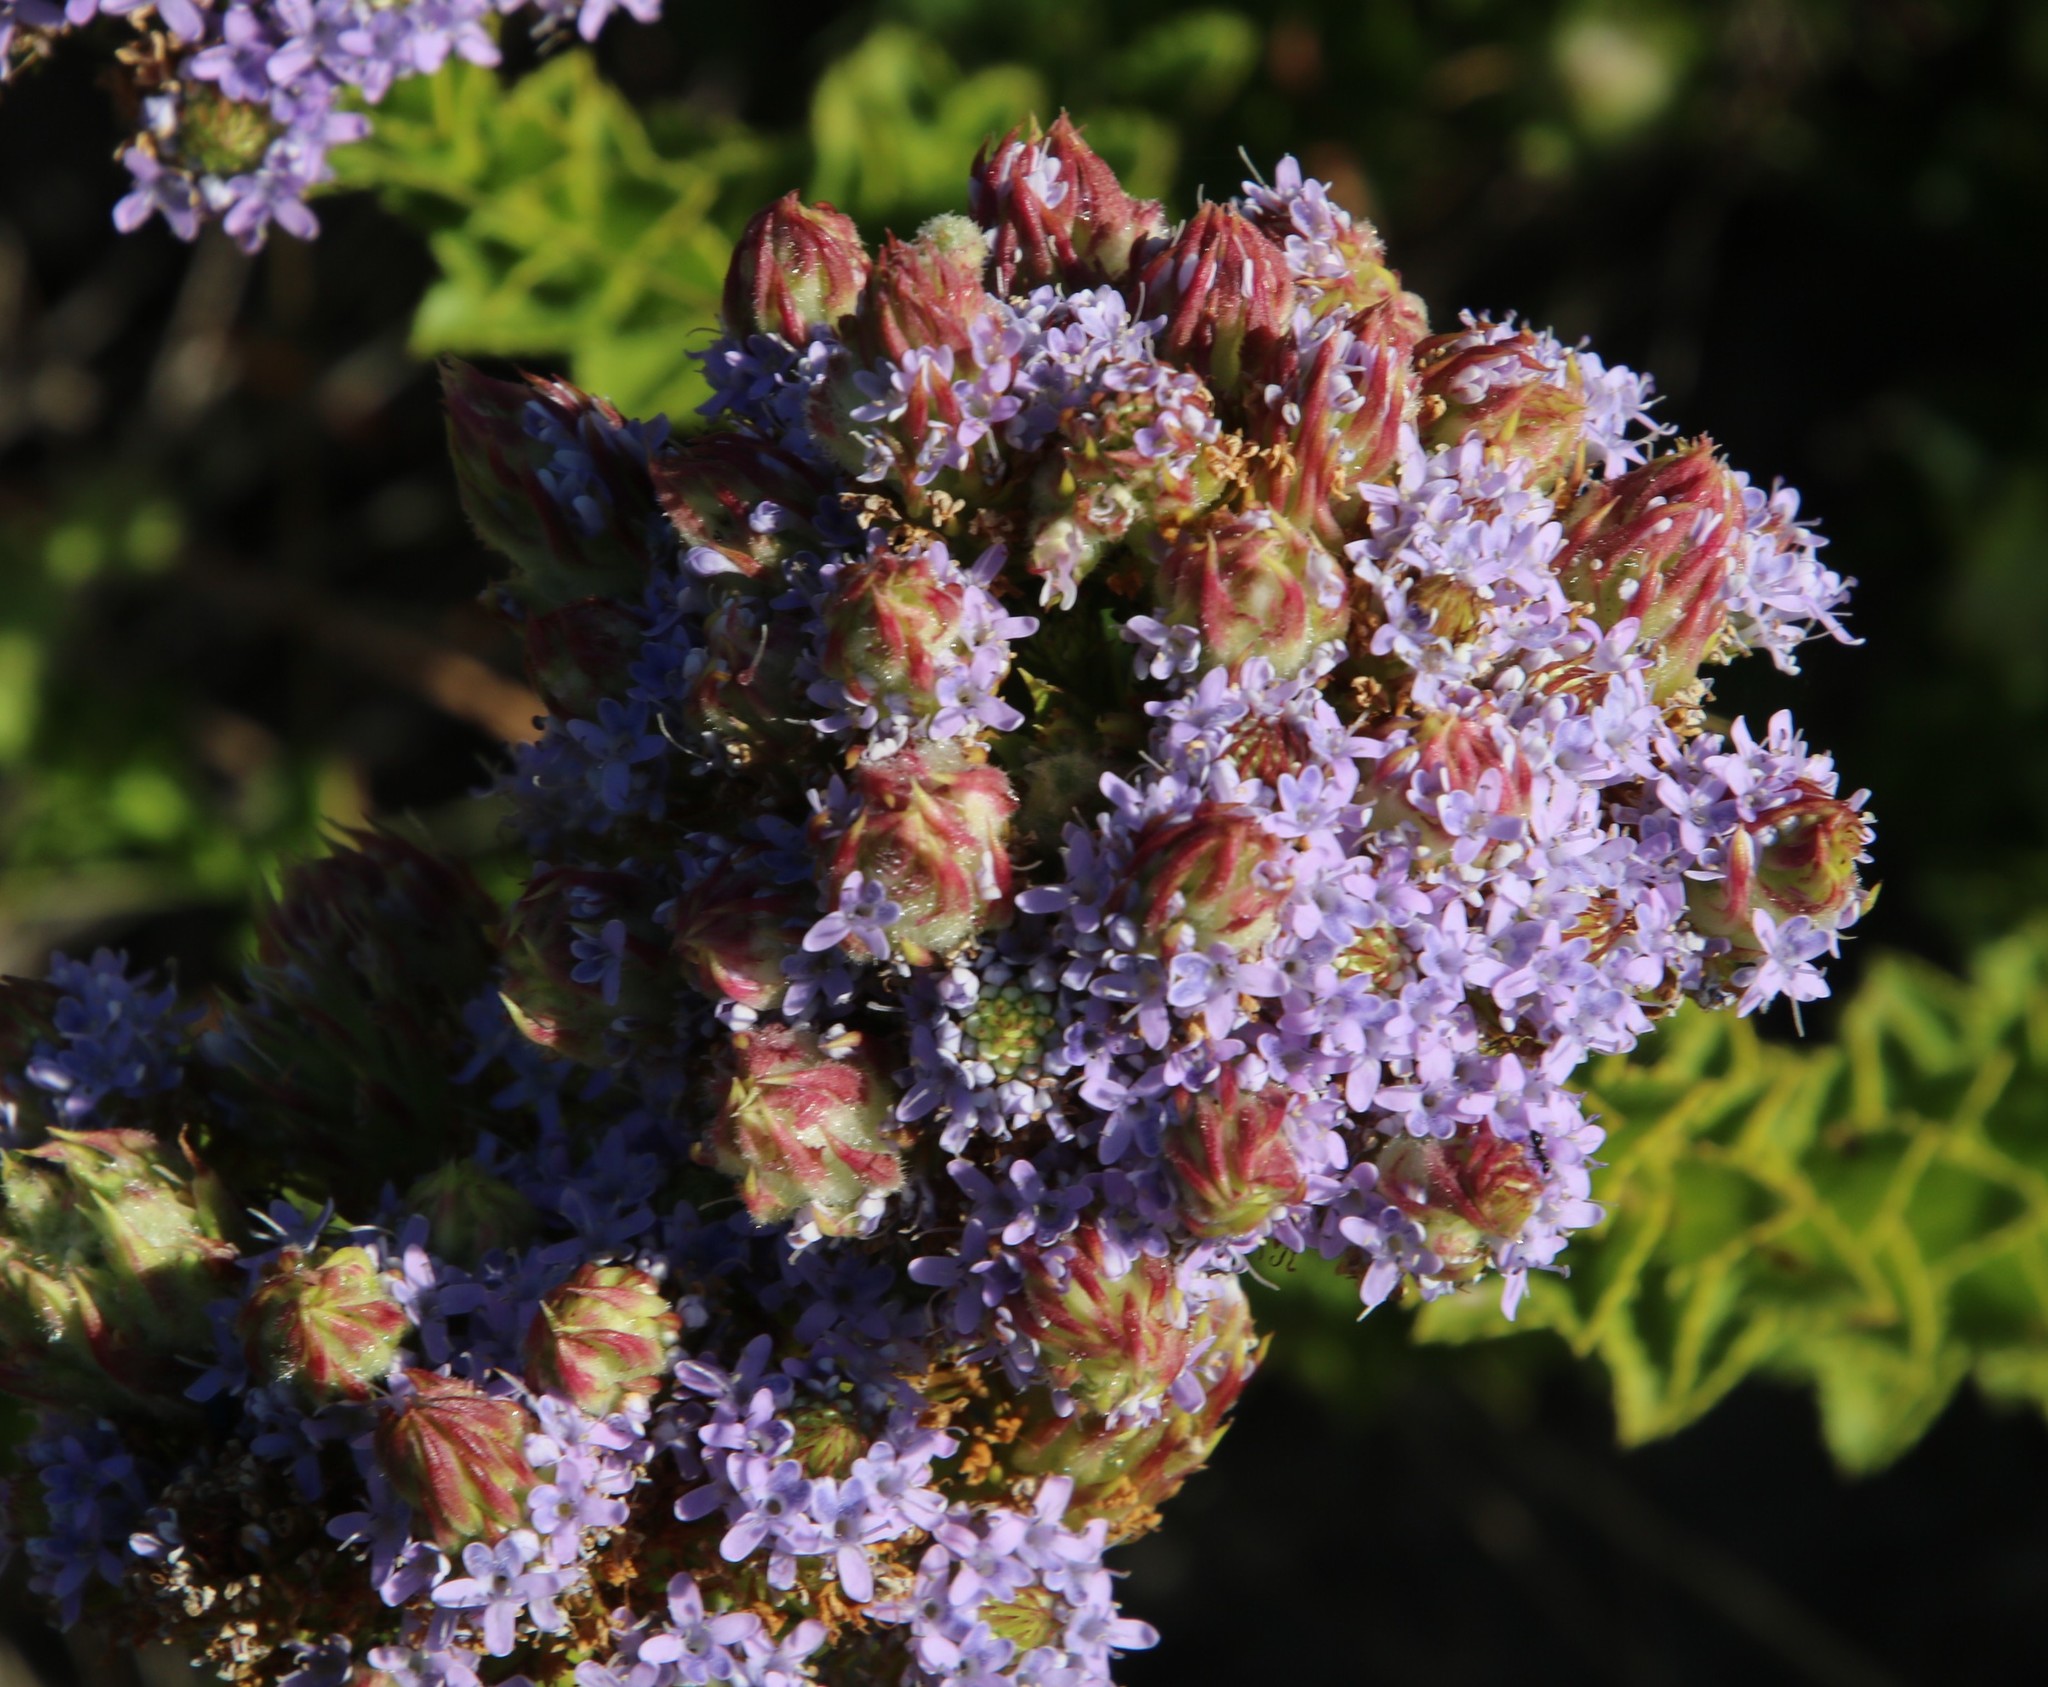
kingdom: Plantae
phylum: Tracheophyta
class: Magnoliopsida
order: Lamiales
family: Scrophulariaceae
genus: Pseudoselago
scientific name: Pseudoselago serrata
